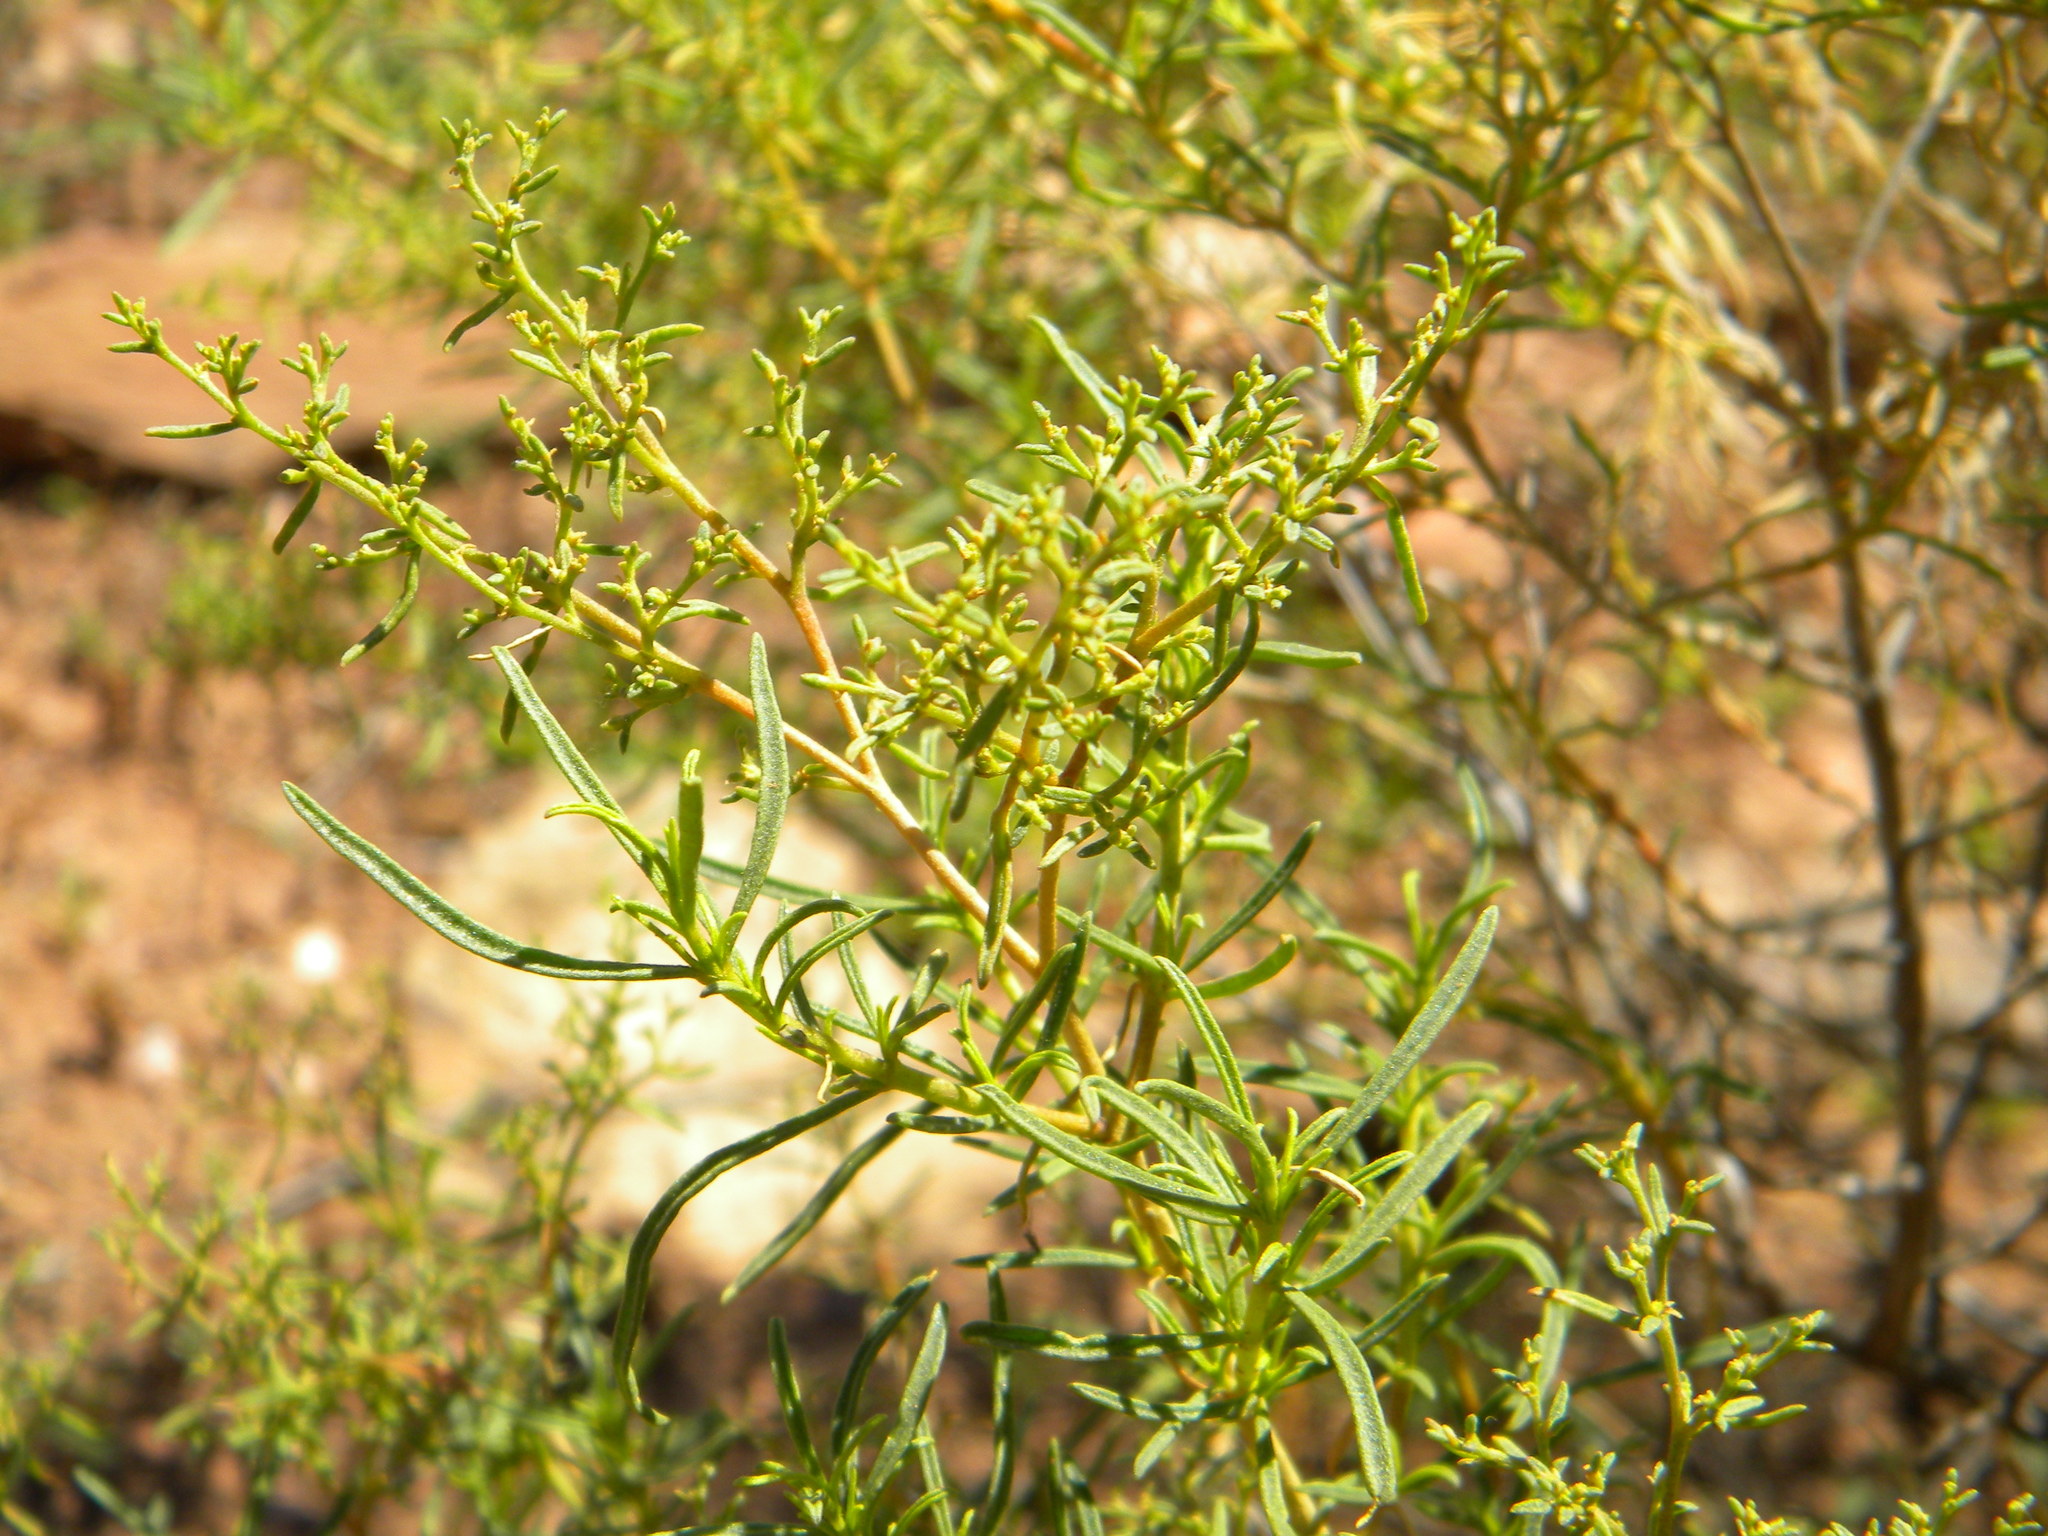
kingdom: Plantae
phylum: Tracheophyta
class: Magnoliopsida
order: Caryophyllales
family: Aizoaceae
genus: Aizoon
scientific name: Aizoon africanum
